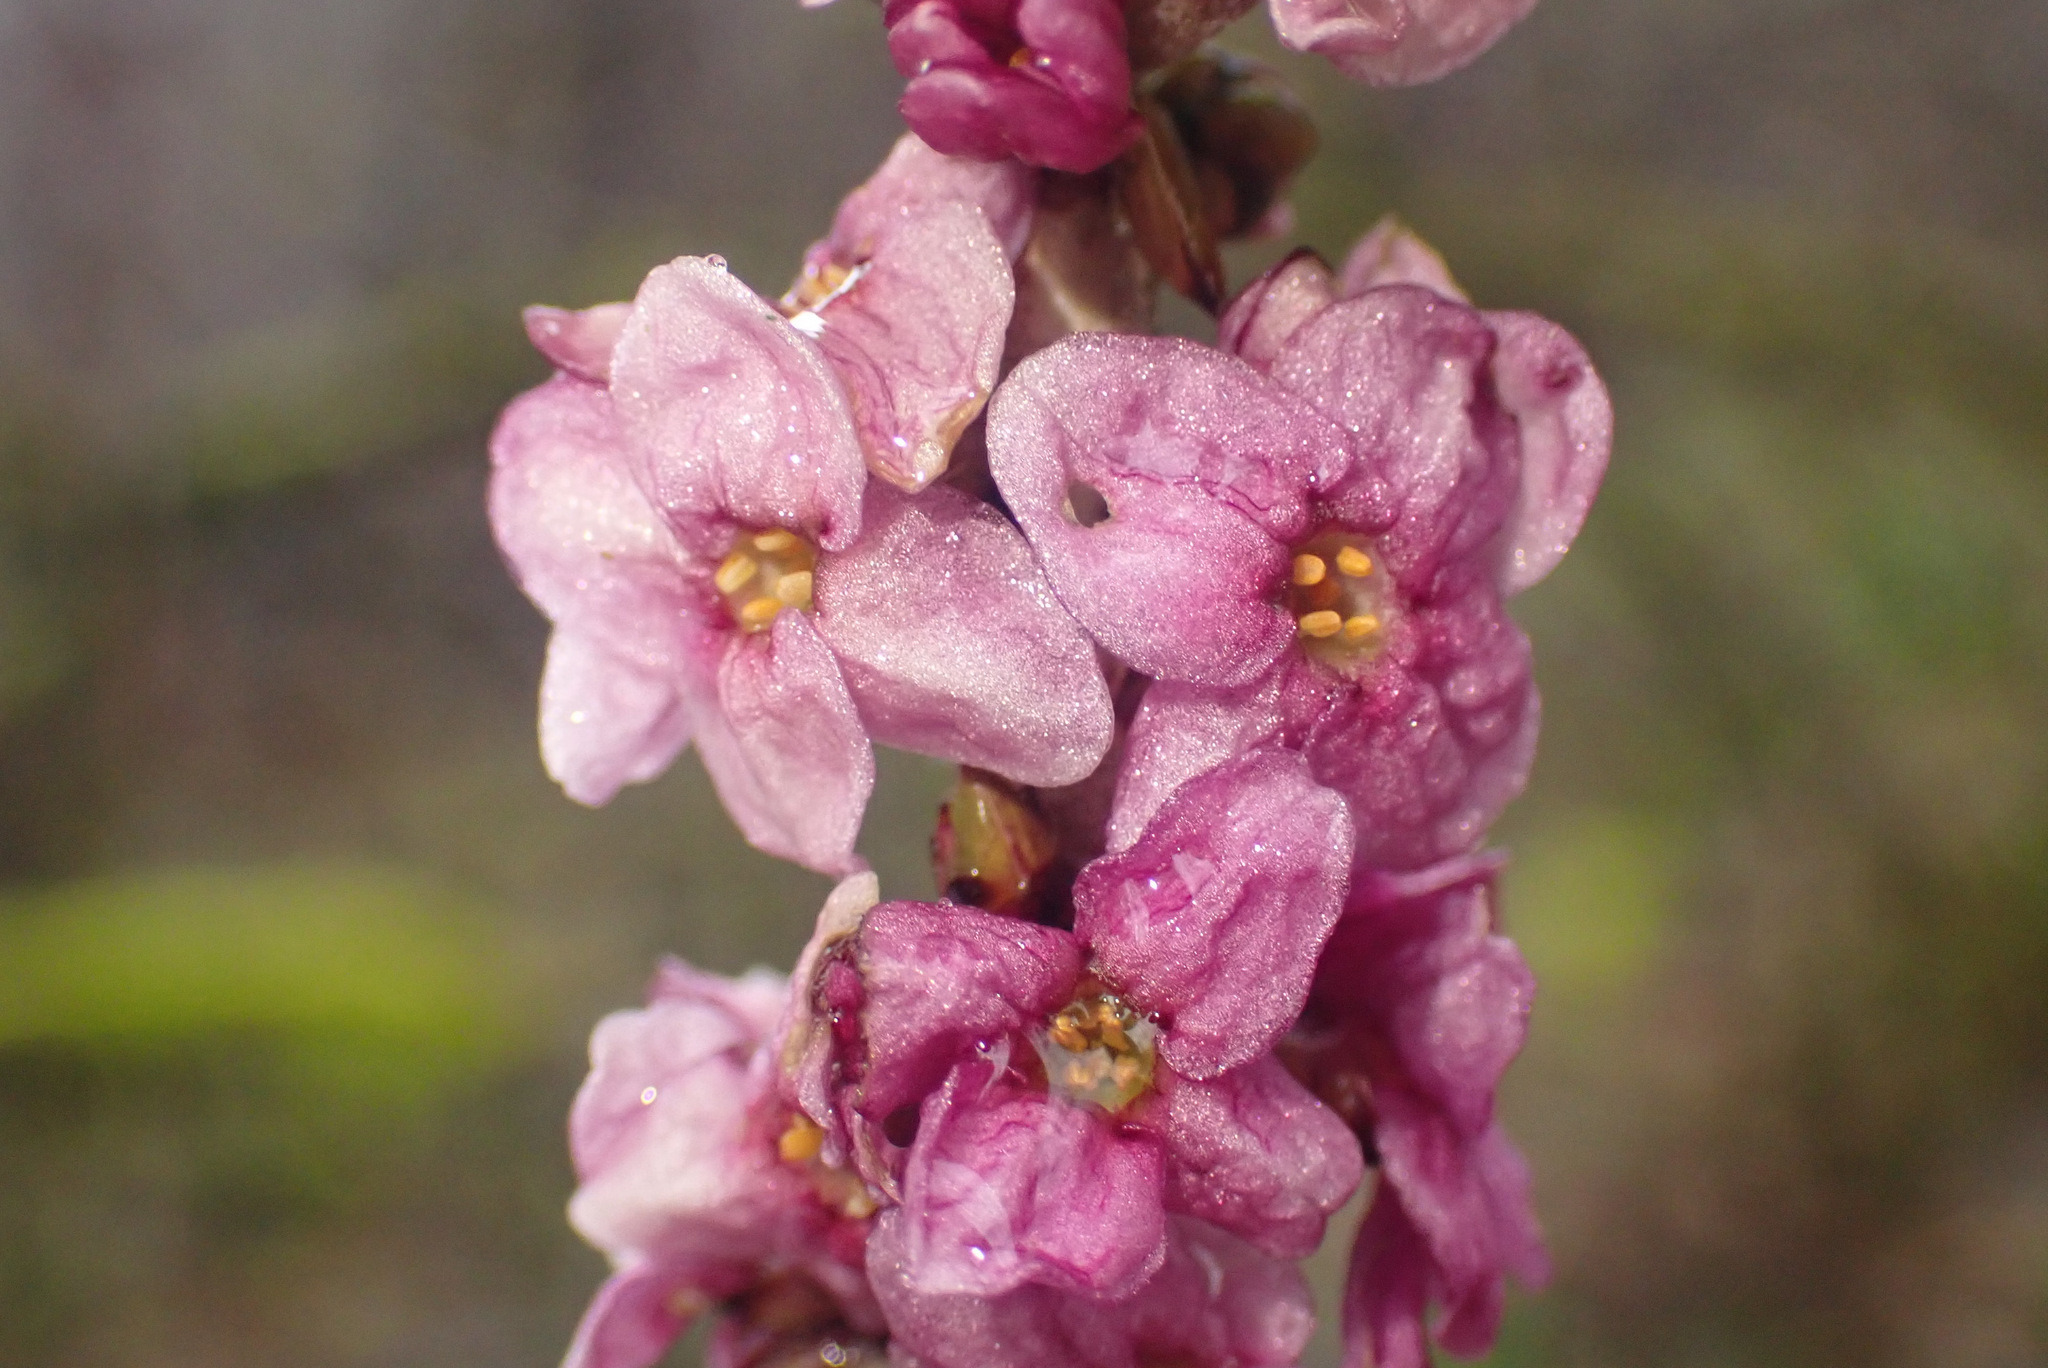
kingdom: Plantae
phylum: Tracheophyta
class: Magnoliopsida
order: Malvales
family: Thymelaeaceae
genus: Daphne
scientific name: Daphne mezereum
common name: Mezereon
